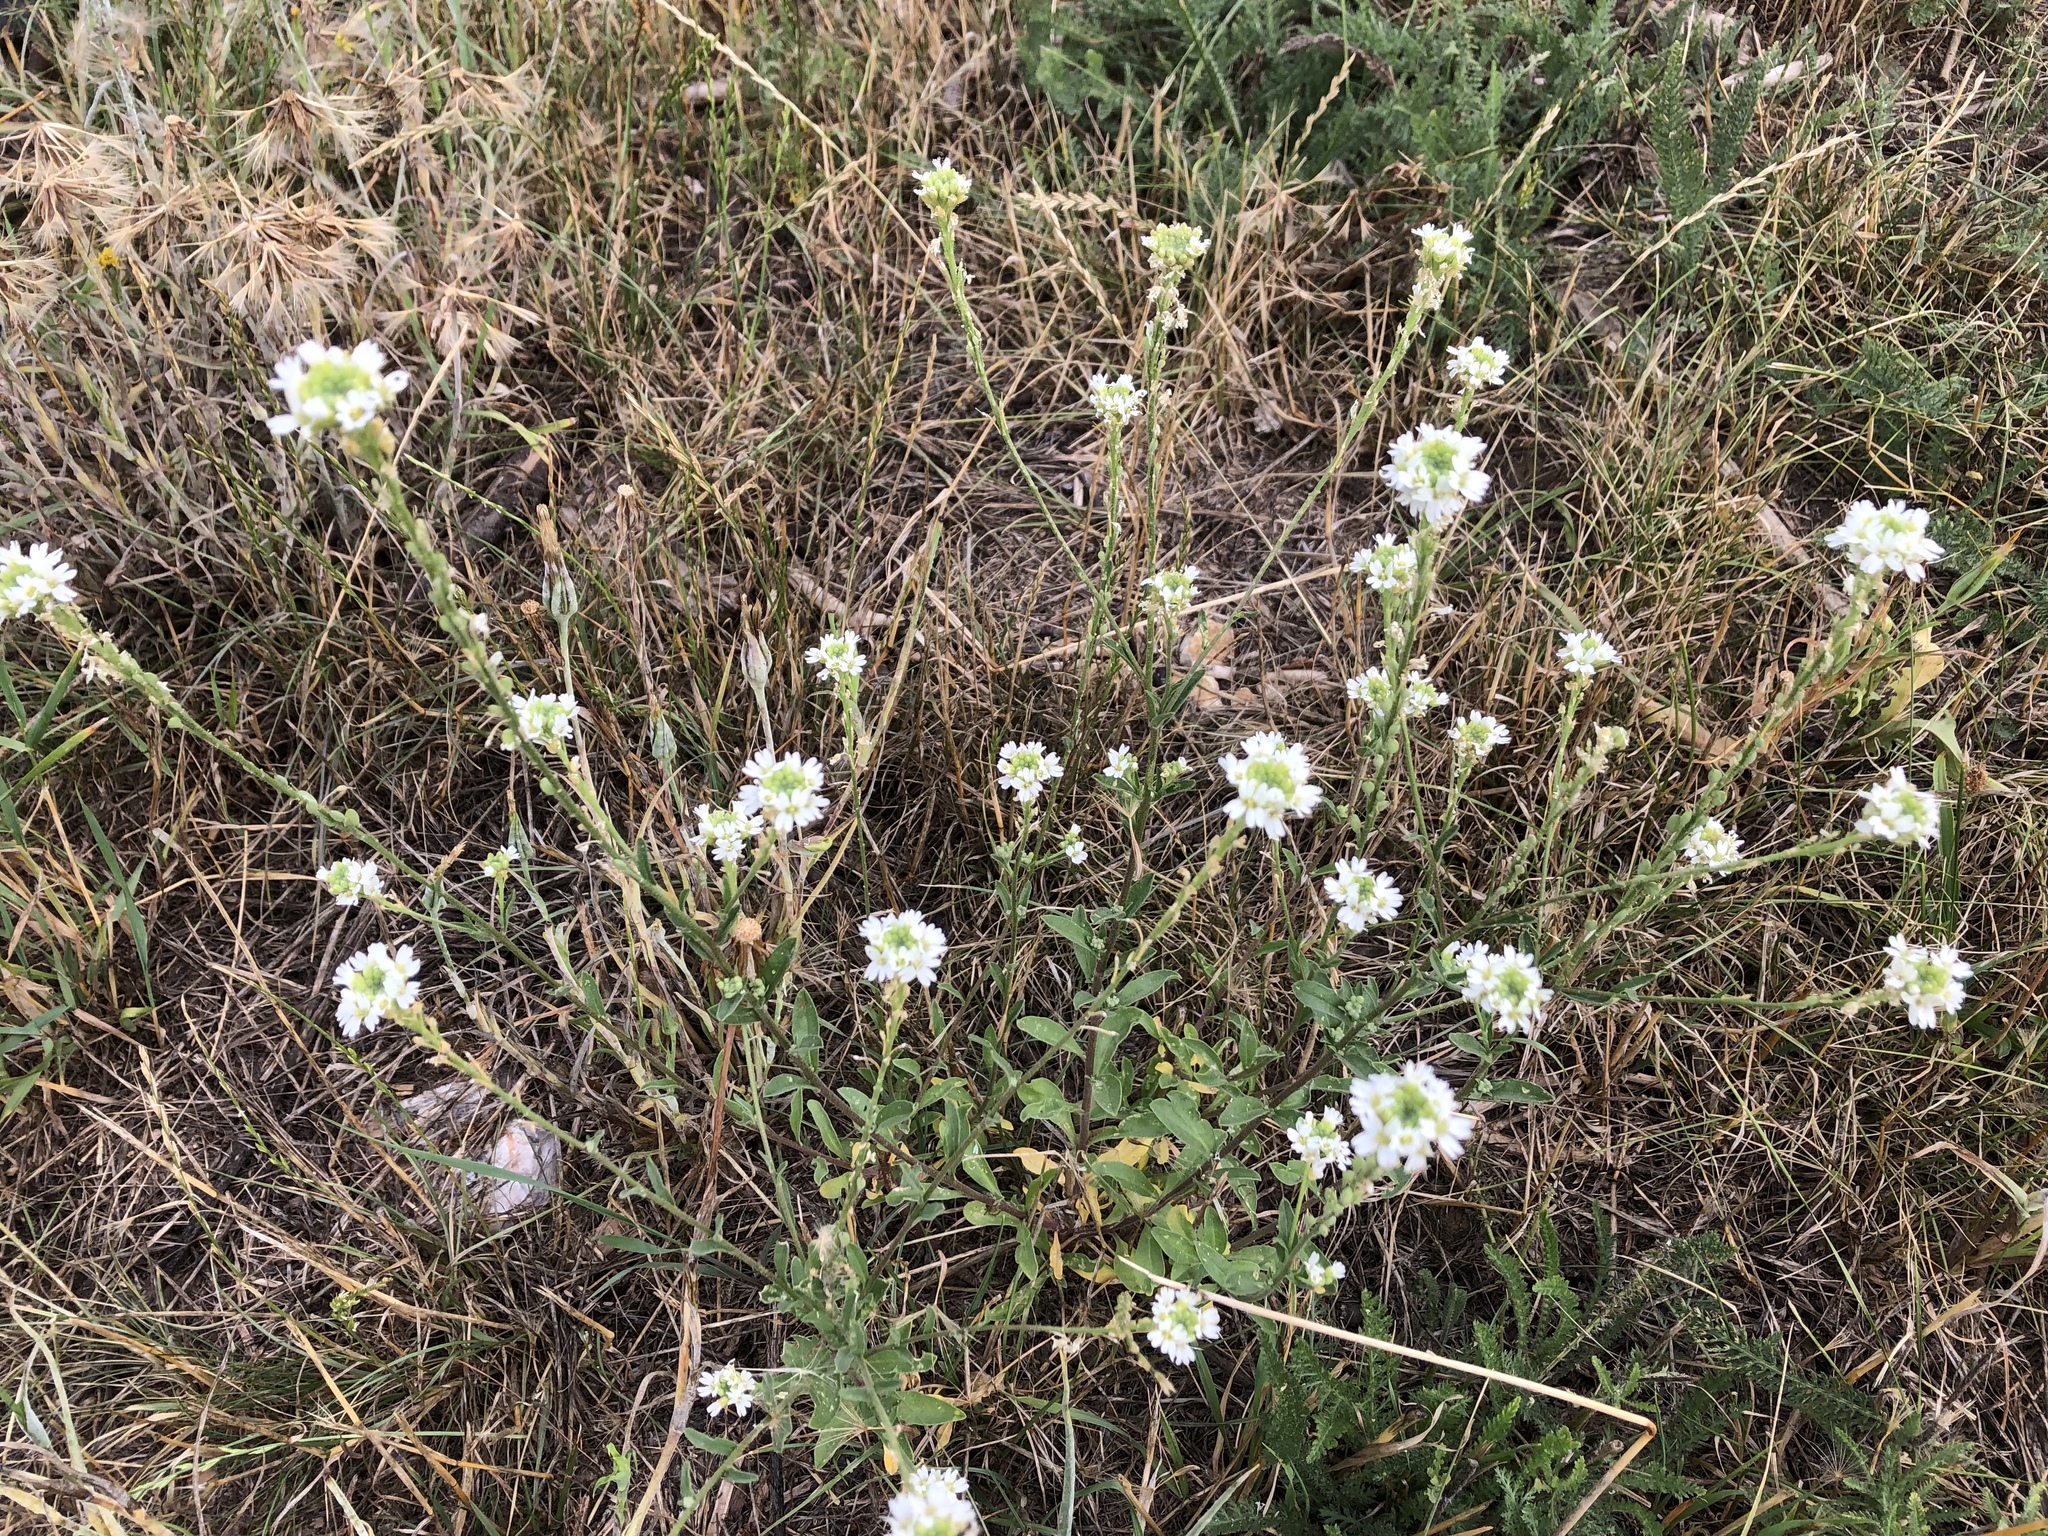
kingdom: Plantae
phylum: Tracheophyta
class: Magnoliopsida
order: Brassicales
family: Brassicaceae
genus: Berteroa
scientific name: Berteroa incana
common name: Hoary alison
